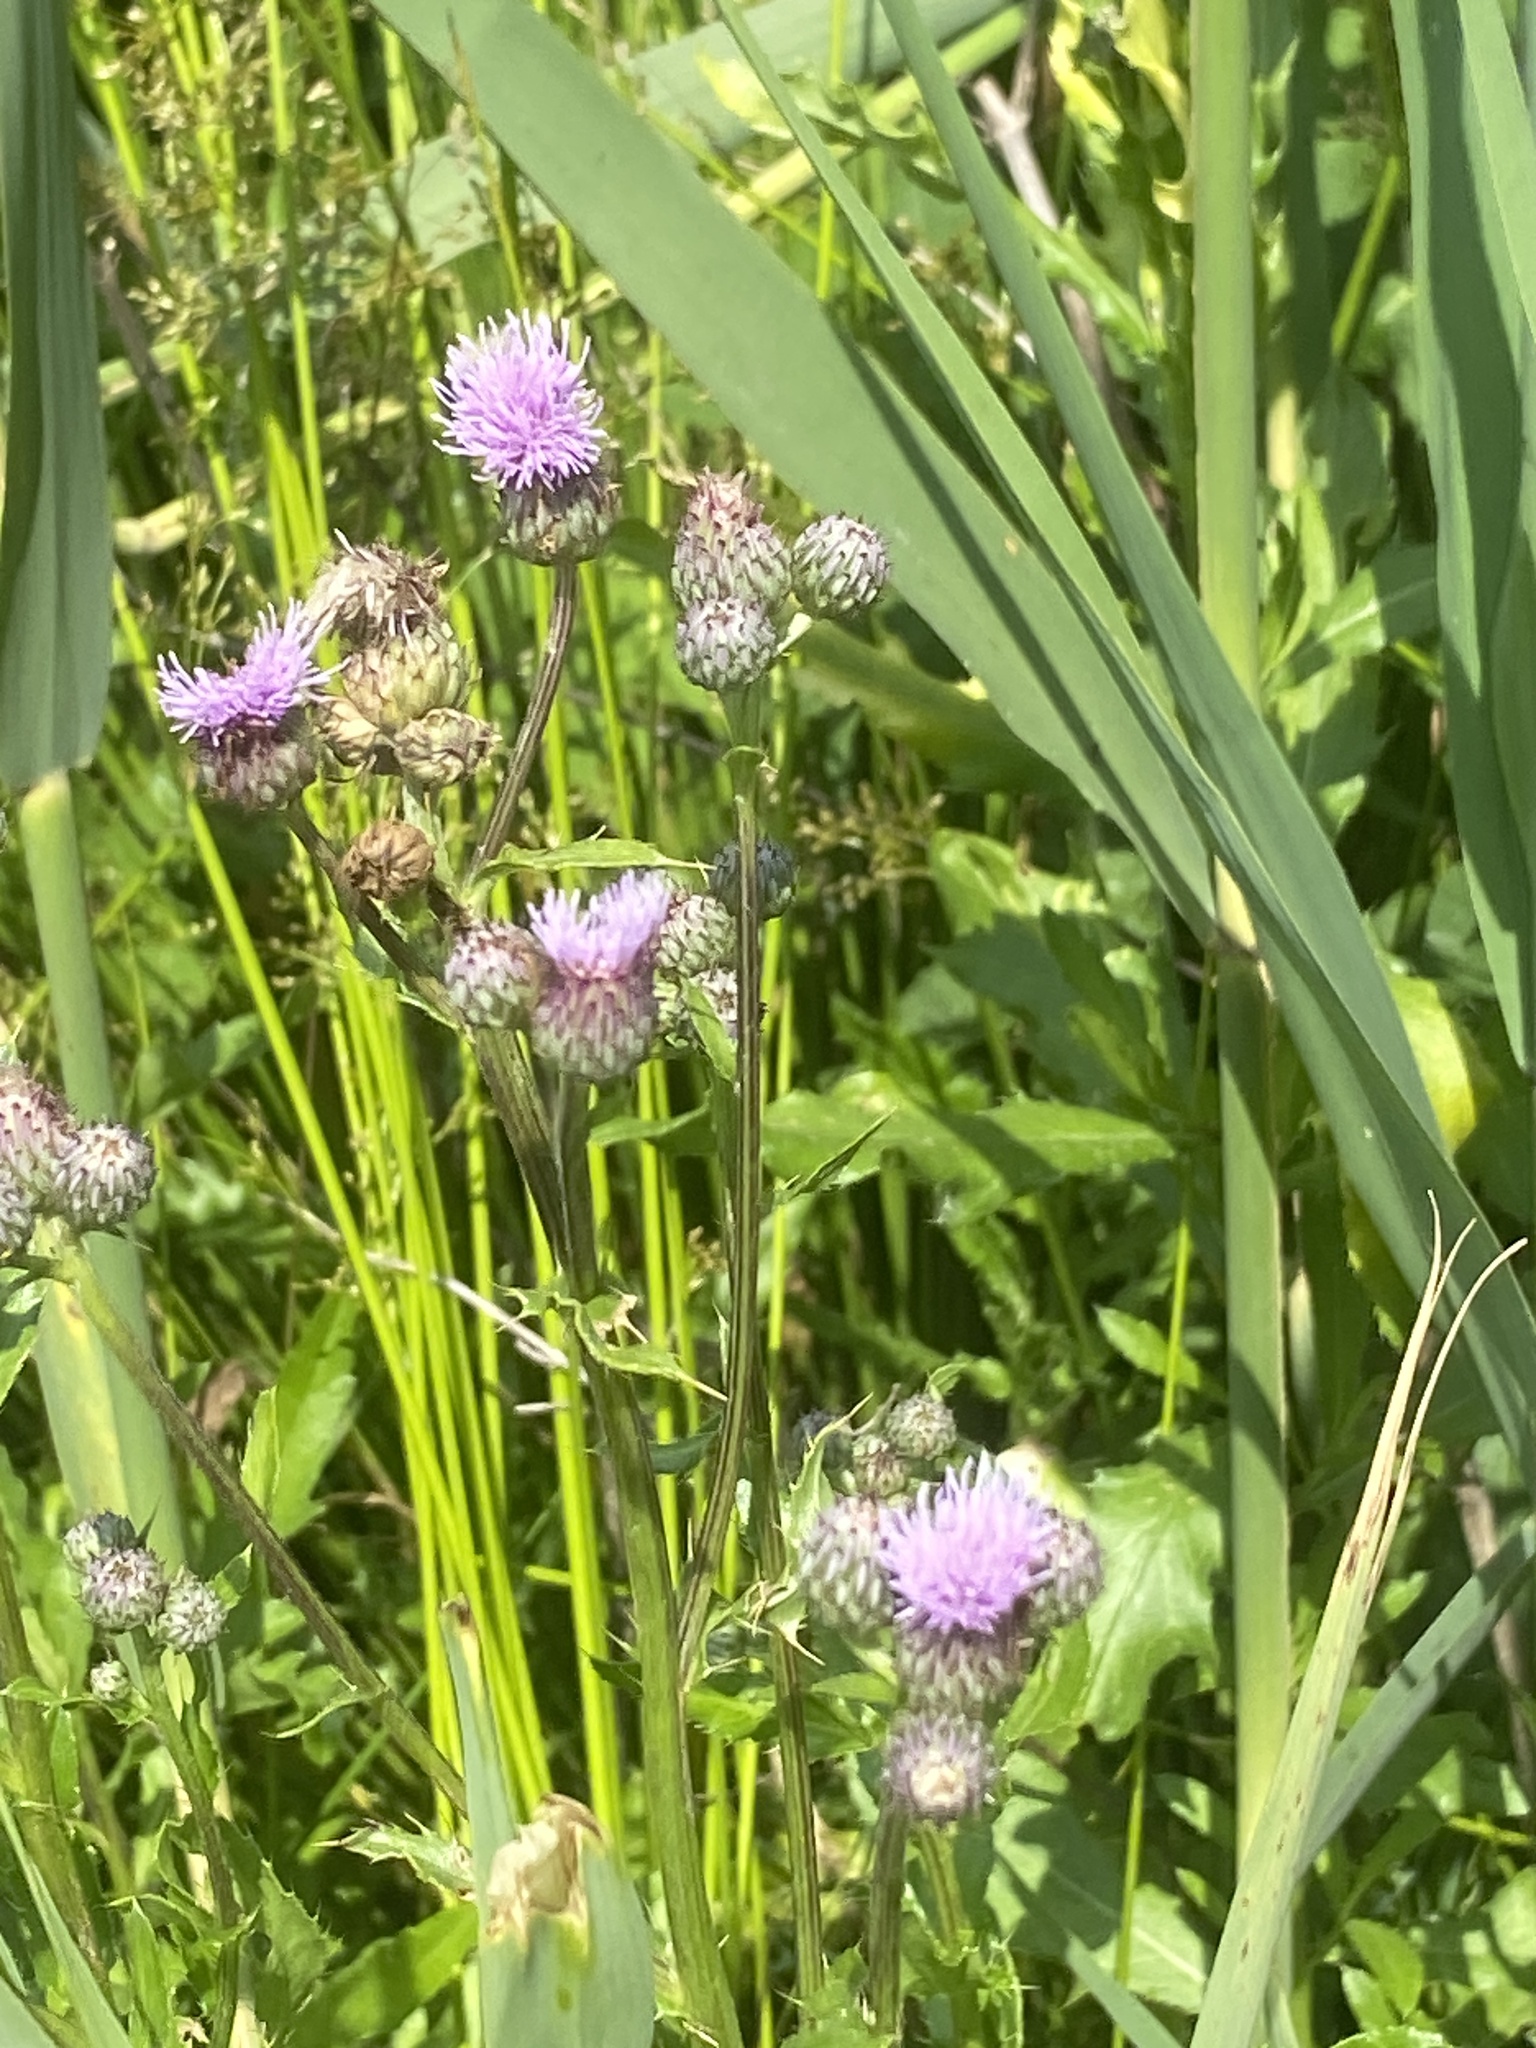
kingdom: Plantae
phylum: Tracheophyta
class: Magnoliopsida
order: Asterales
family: Asteraceae
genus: Cirsium
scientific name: Cirsium arvense
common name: Creeping thistle
